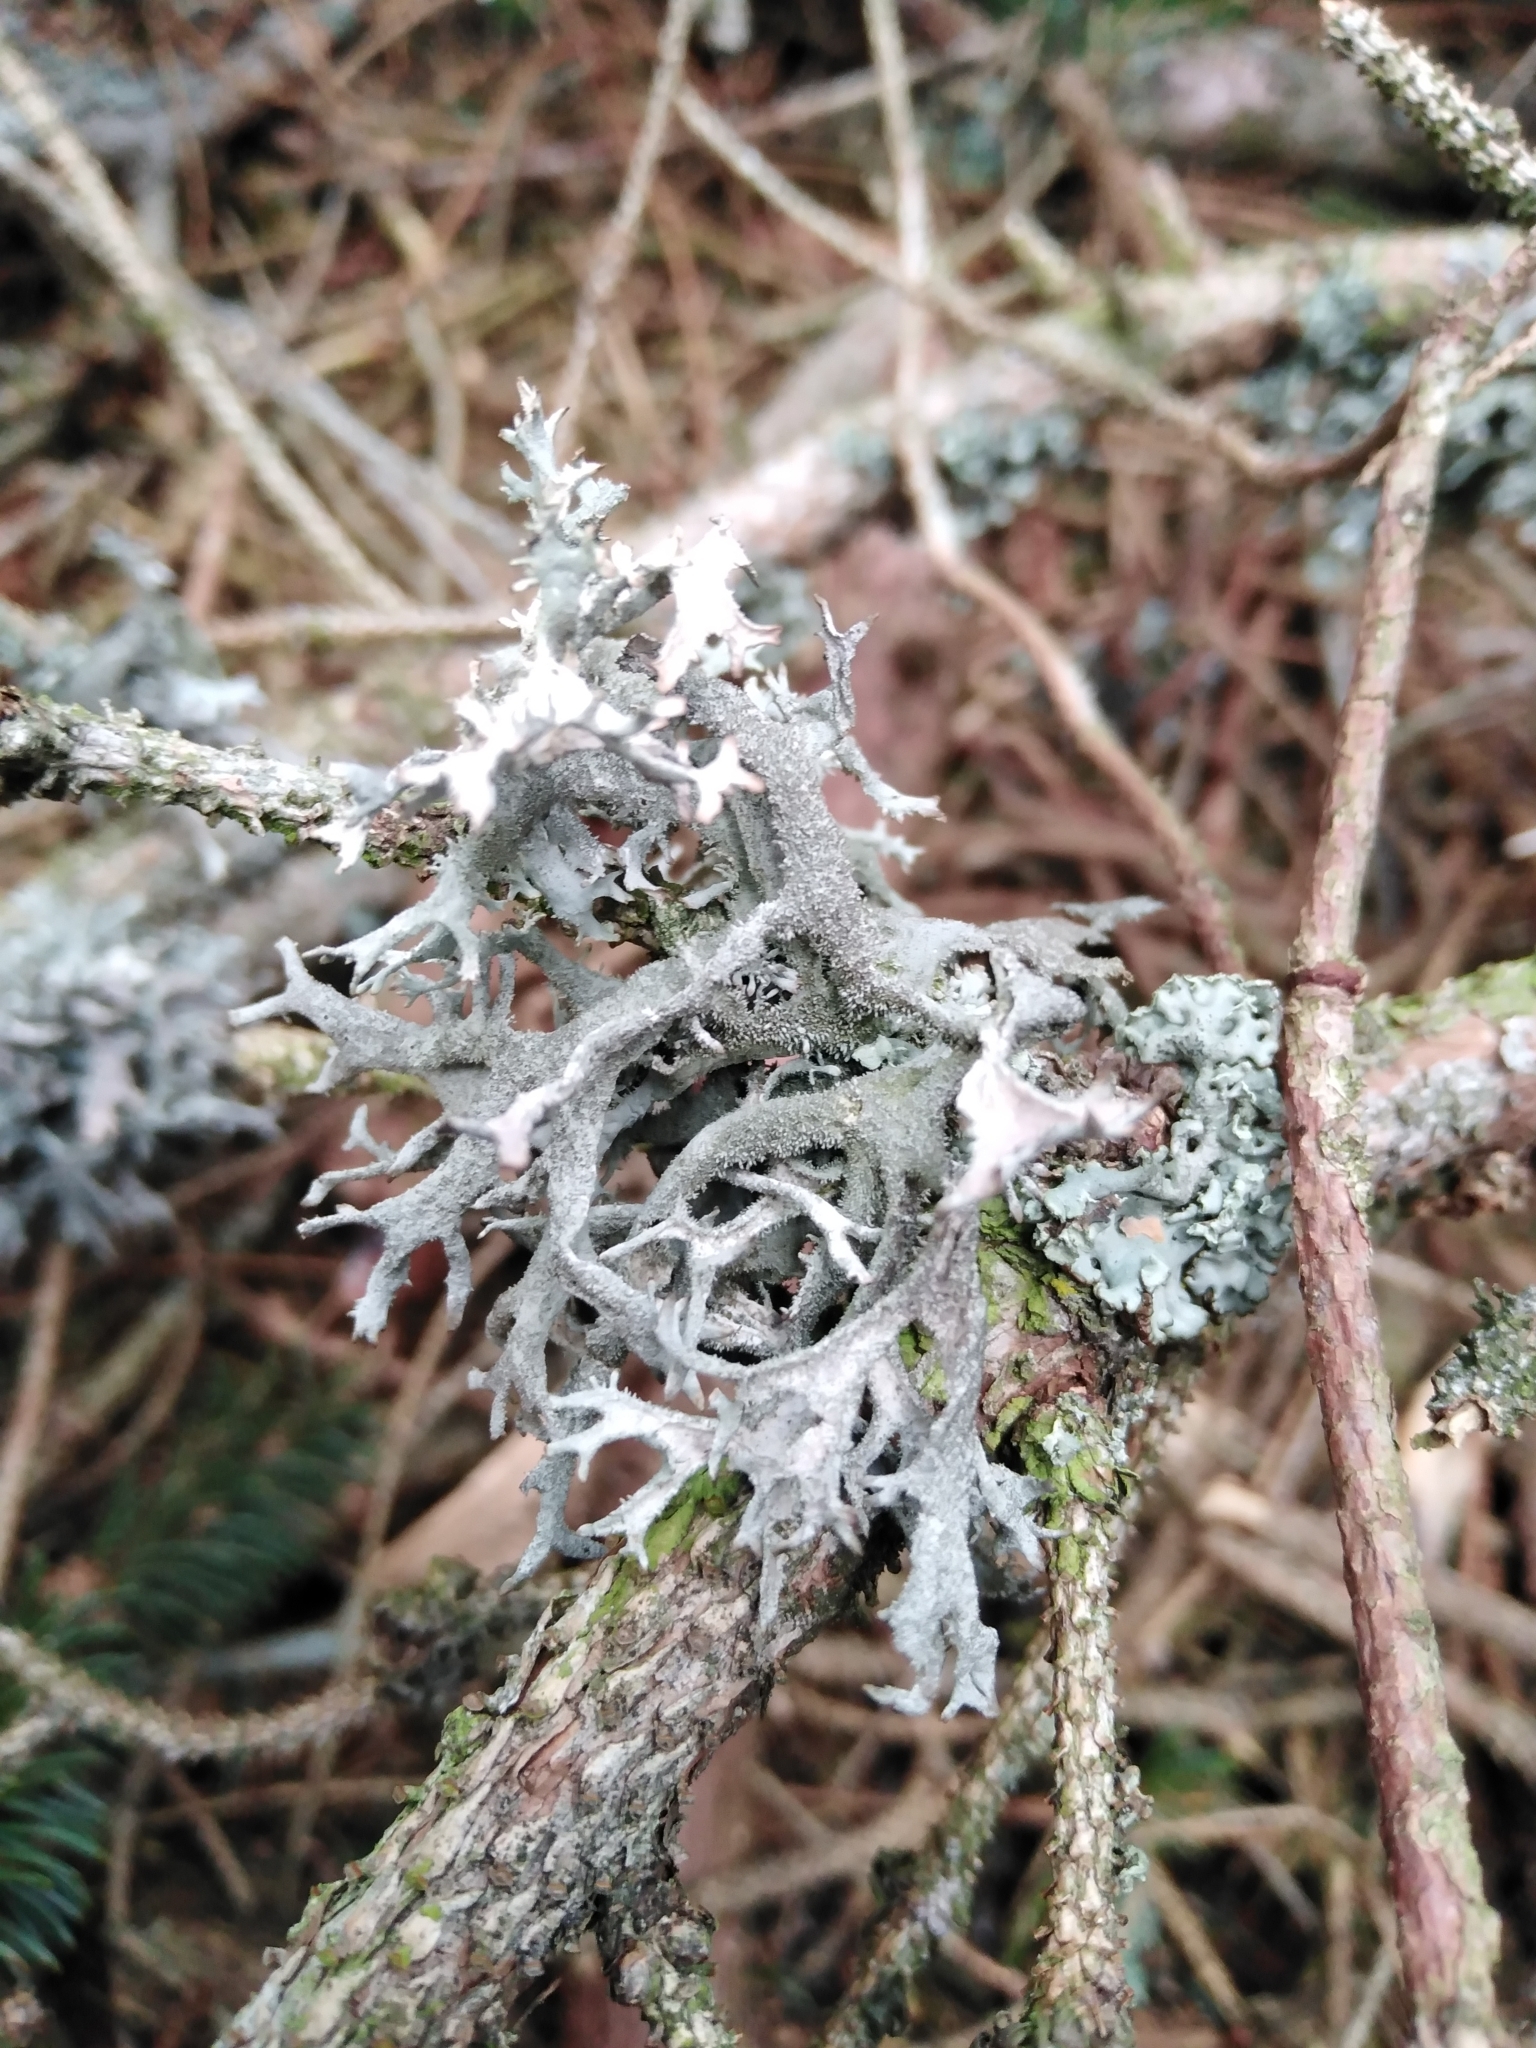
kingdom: Fungi
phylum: Ascomycota
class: Lecanoromycetes
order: Lecanorales
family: Parmeliaceae
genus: Pseudevernia
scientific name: Pseudevernia furfuracea
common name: Tree moss
